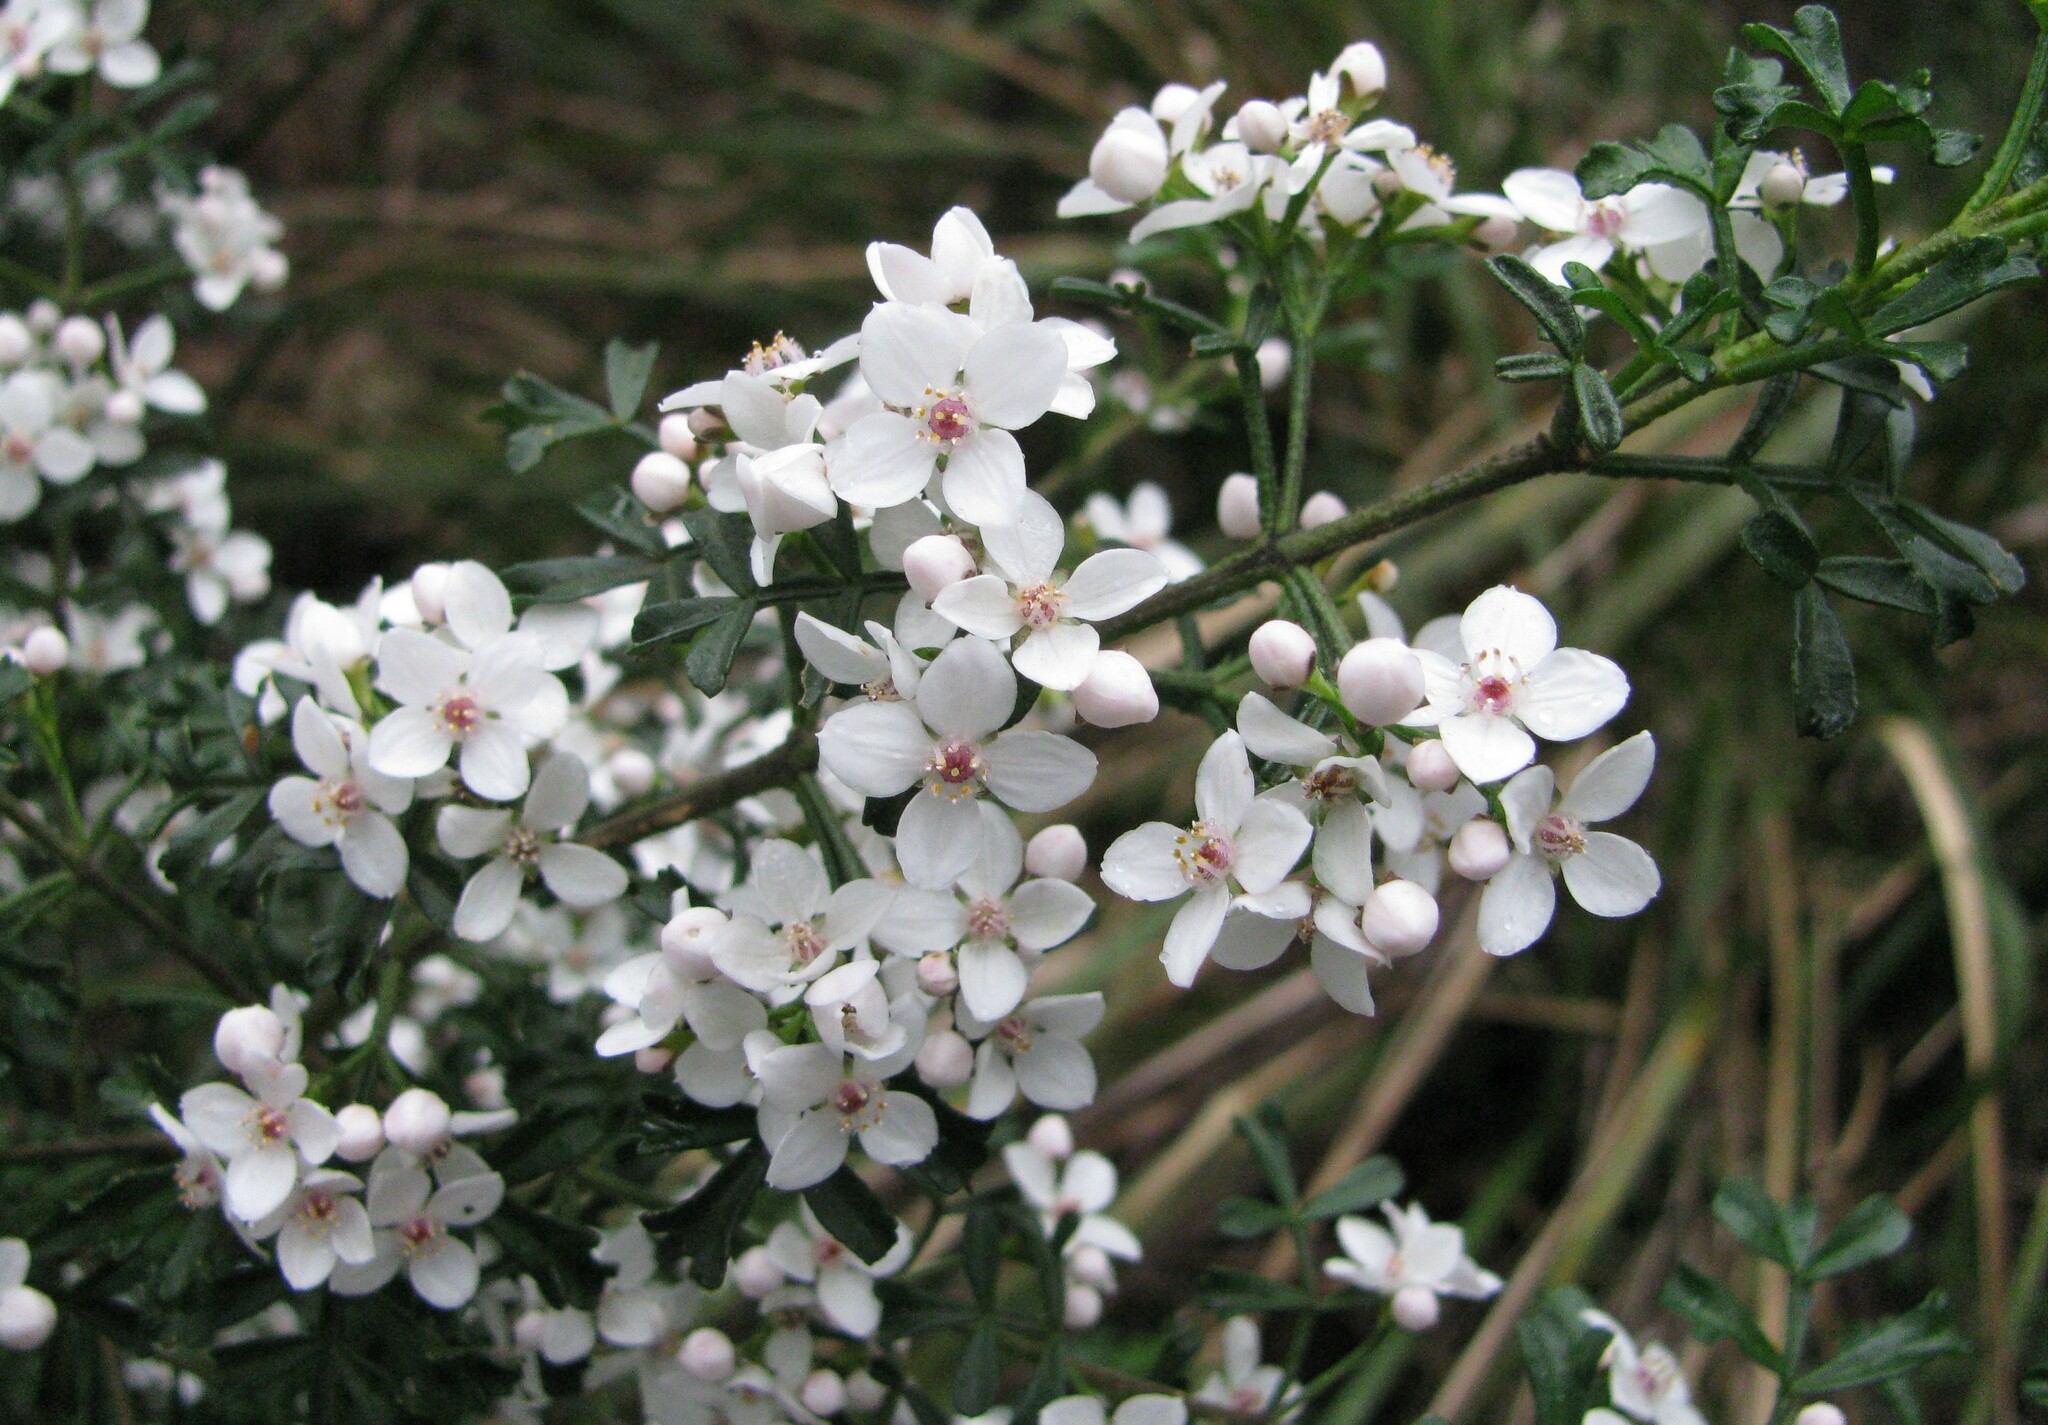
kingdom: Plantae
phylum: Tracheophyta
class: Magnoliopsida
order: Sapindales
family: Rutaceae
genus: Cyanothamnus
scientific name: Cyanothamnus anemonifolius
